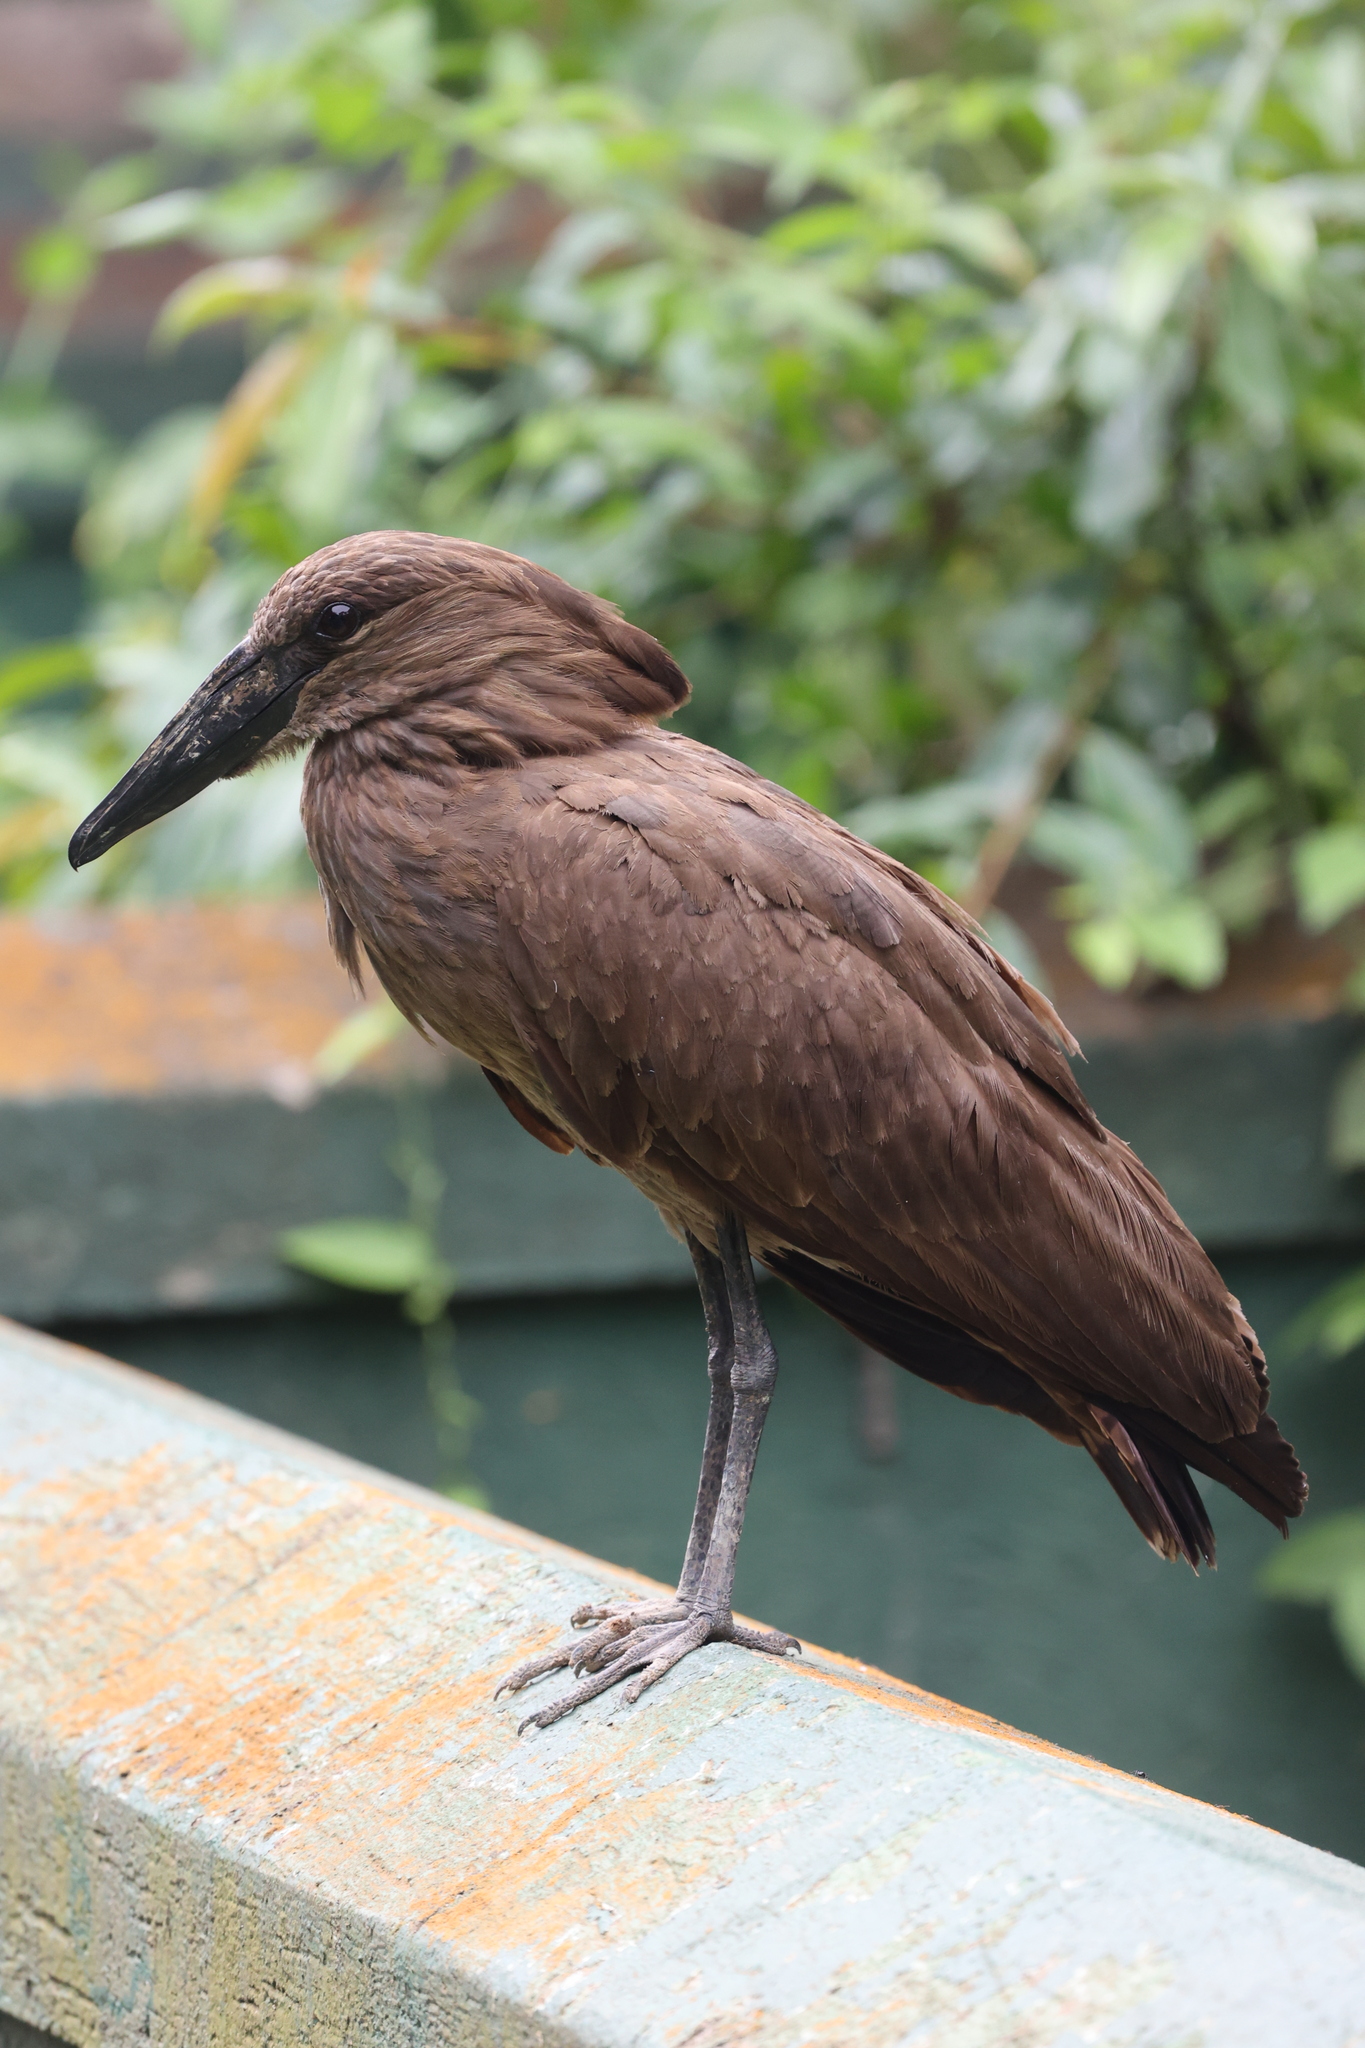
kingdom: Animalia
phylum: Chordata
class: Aves
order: Pelecaniformes
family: Scopidae
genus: Scopus
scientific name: Scopus umbretta
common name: Hamerkop
